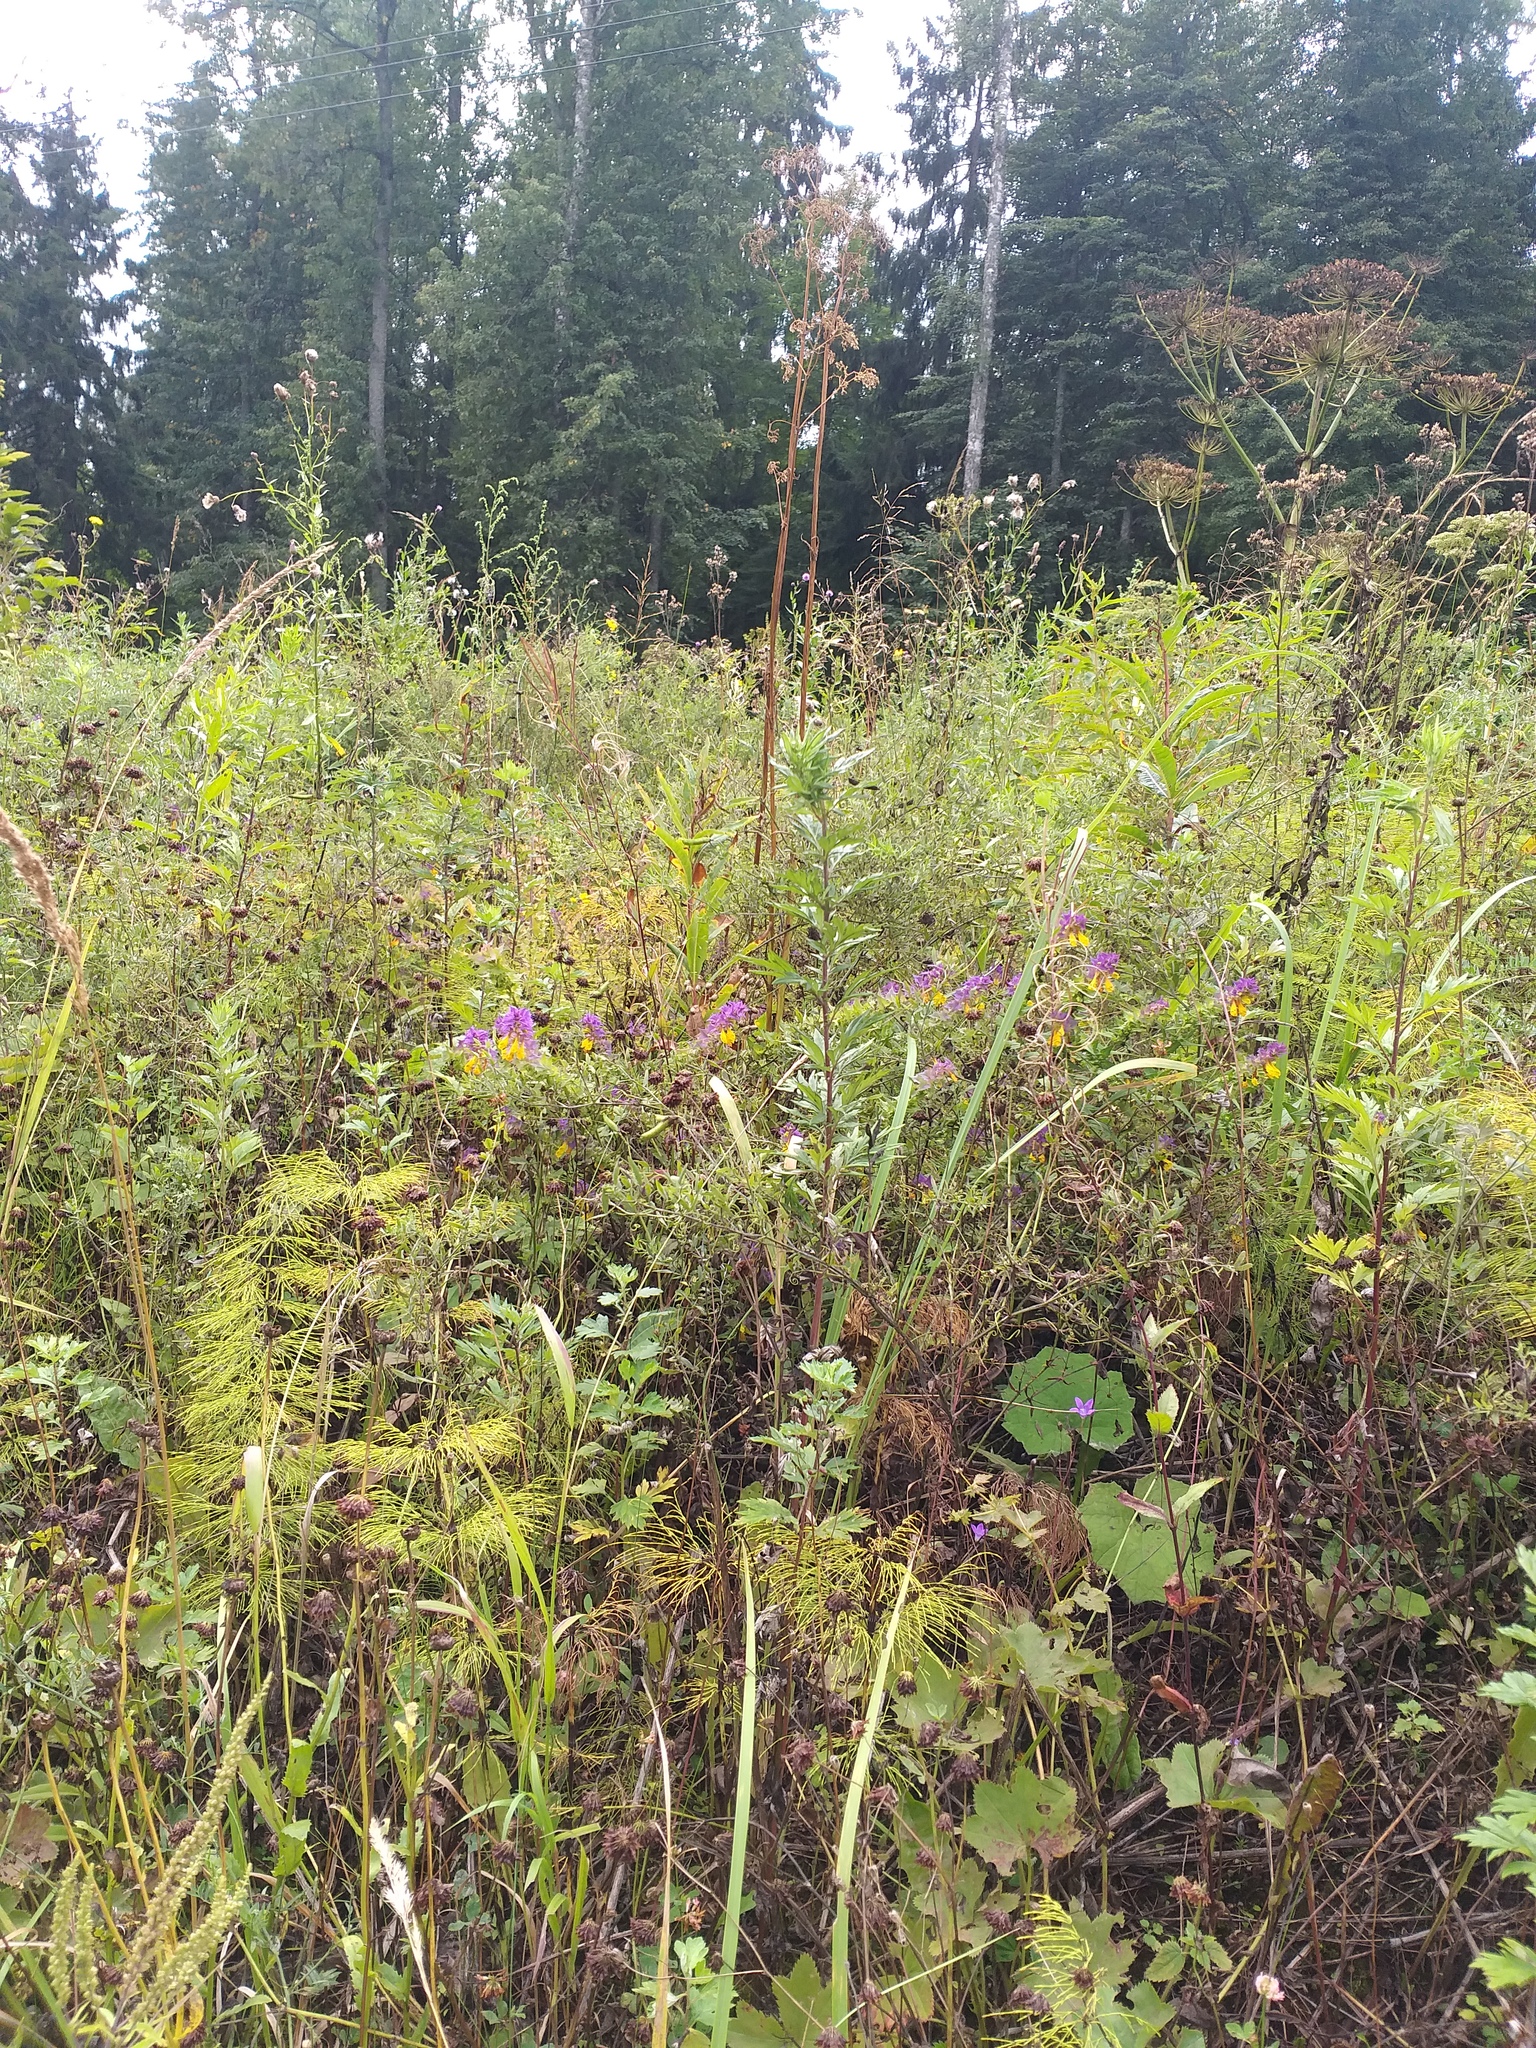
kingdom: Plantae
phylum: Tracheophyta
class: Magnoliopsida
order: Asterales
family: Asteraceae
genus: Artemisia
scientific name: Artemisia vulgaris
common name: Mugwort
